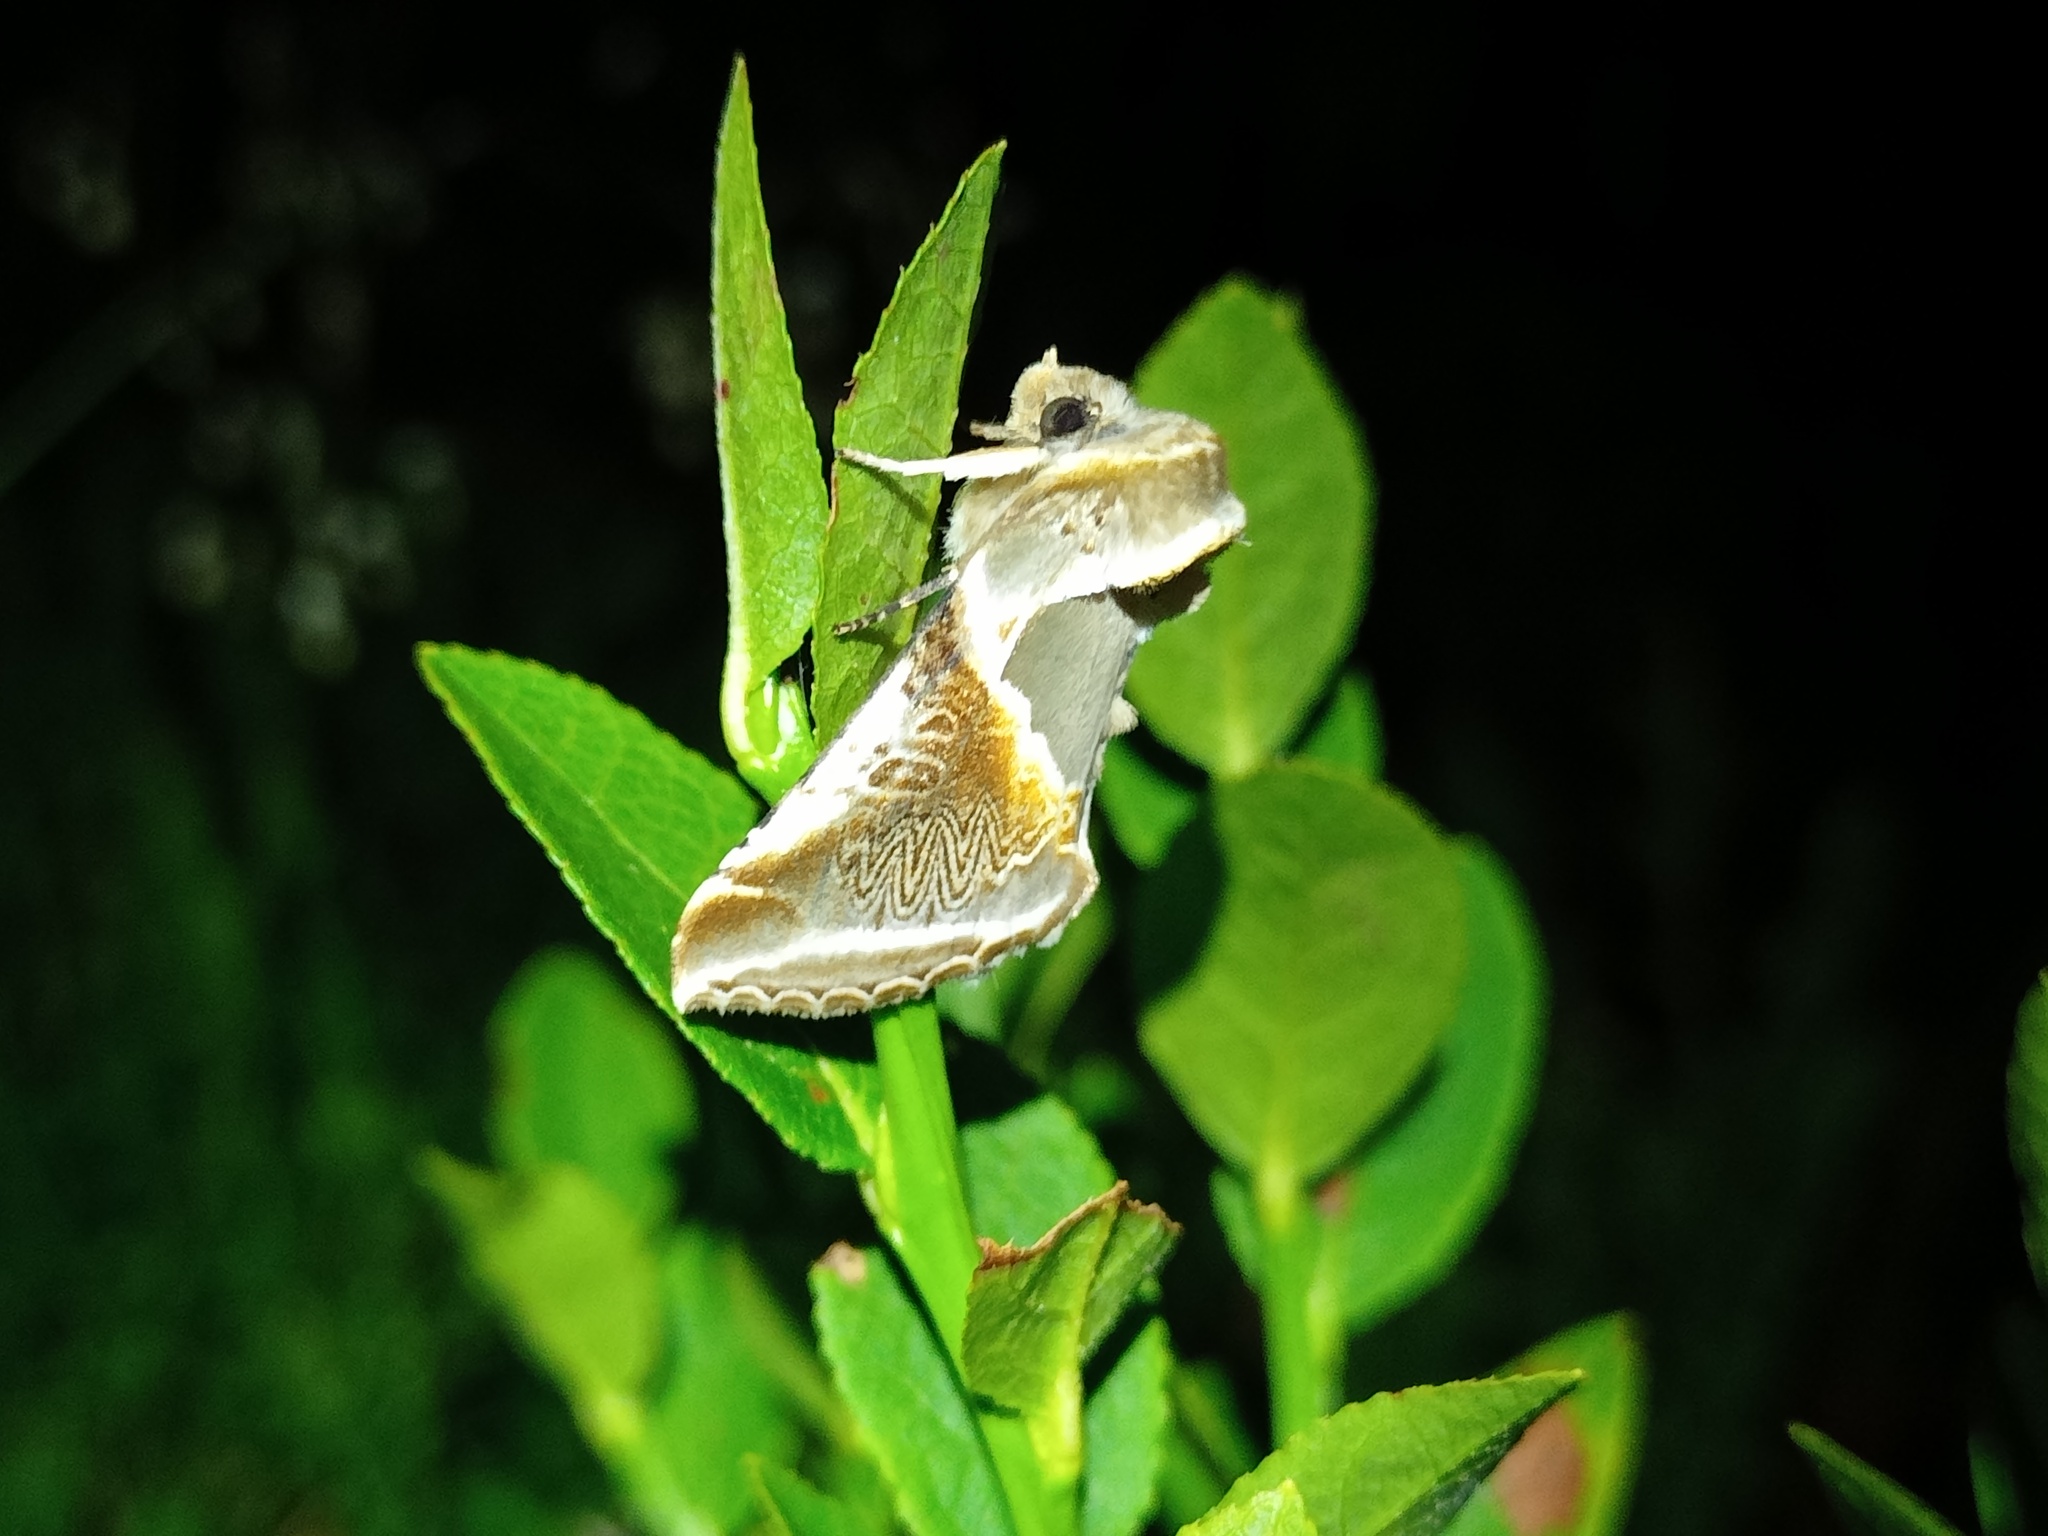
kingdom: Animalia
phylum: Arthropoda
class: Insecta
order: Lepidoptera
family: Drepanidae
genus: Habrosyne
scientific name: Habrosyne pyritoides
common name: Buff arches
